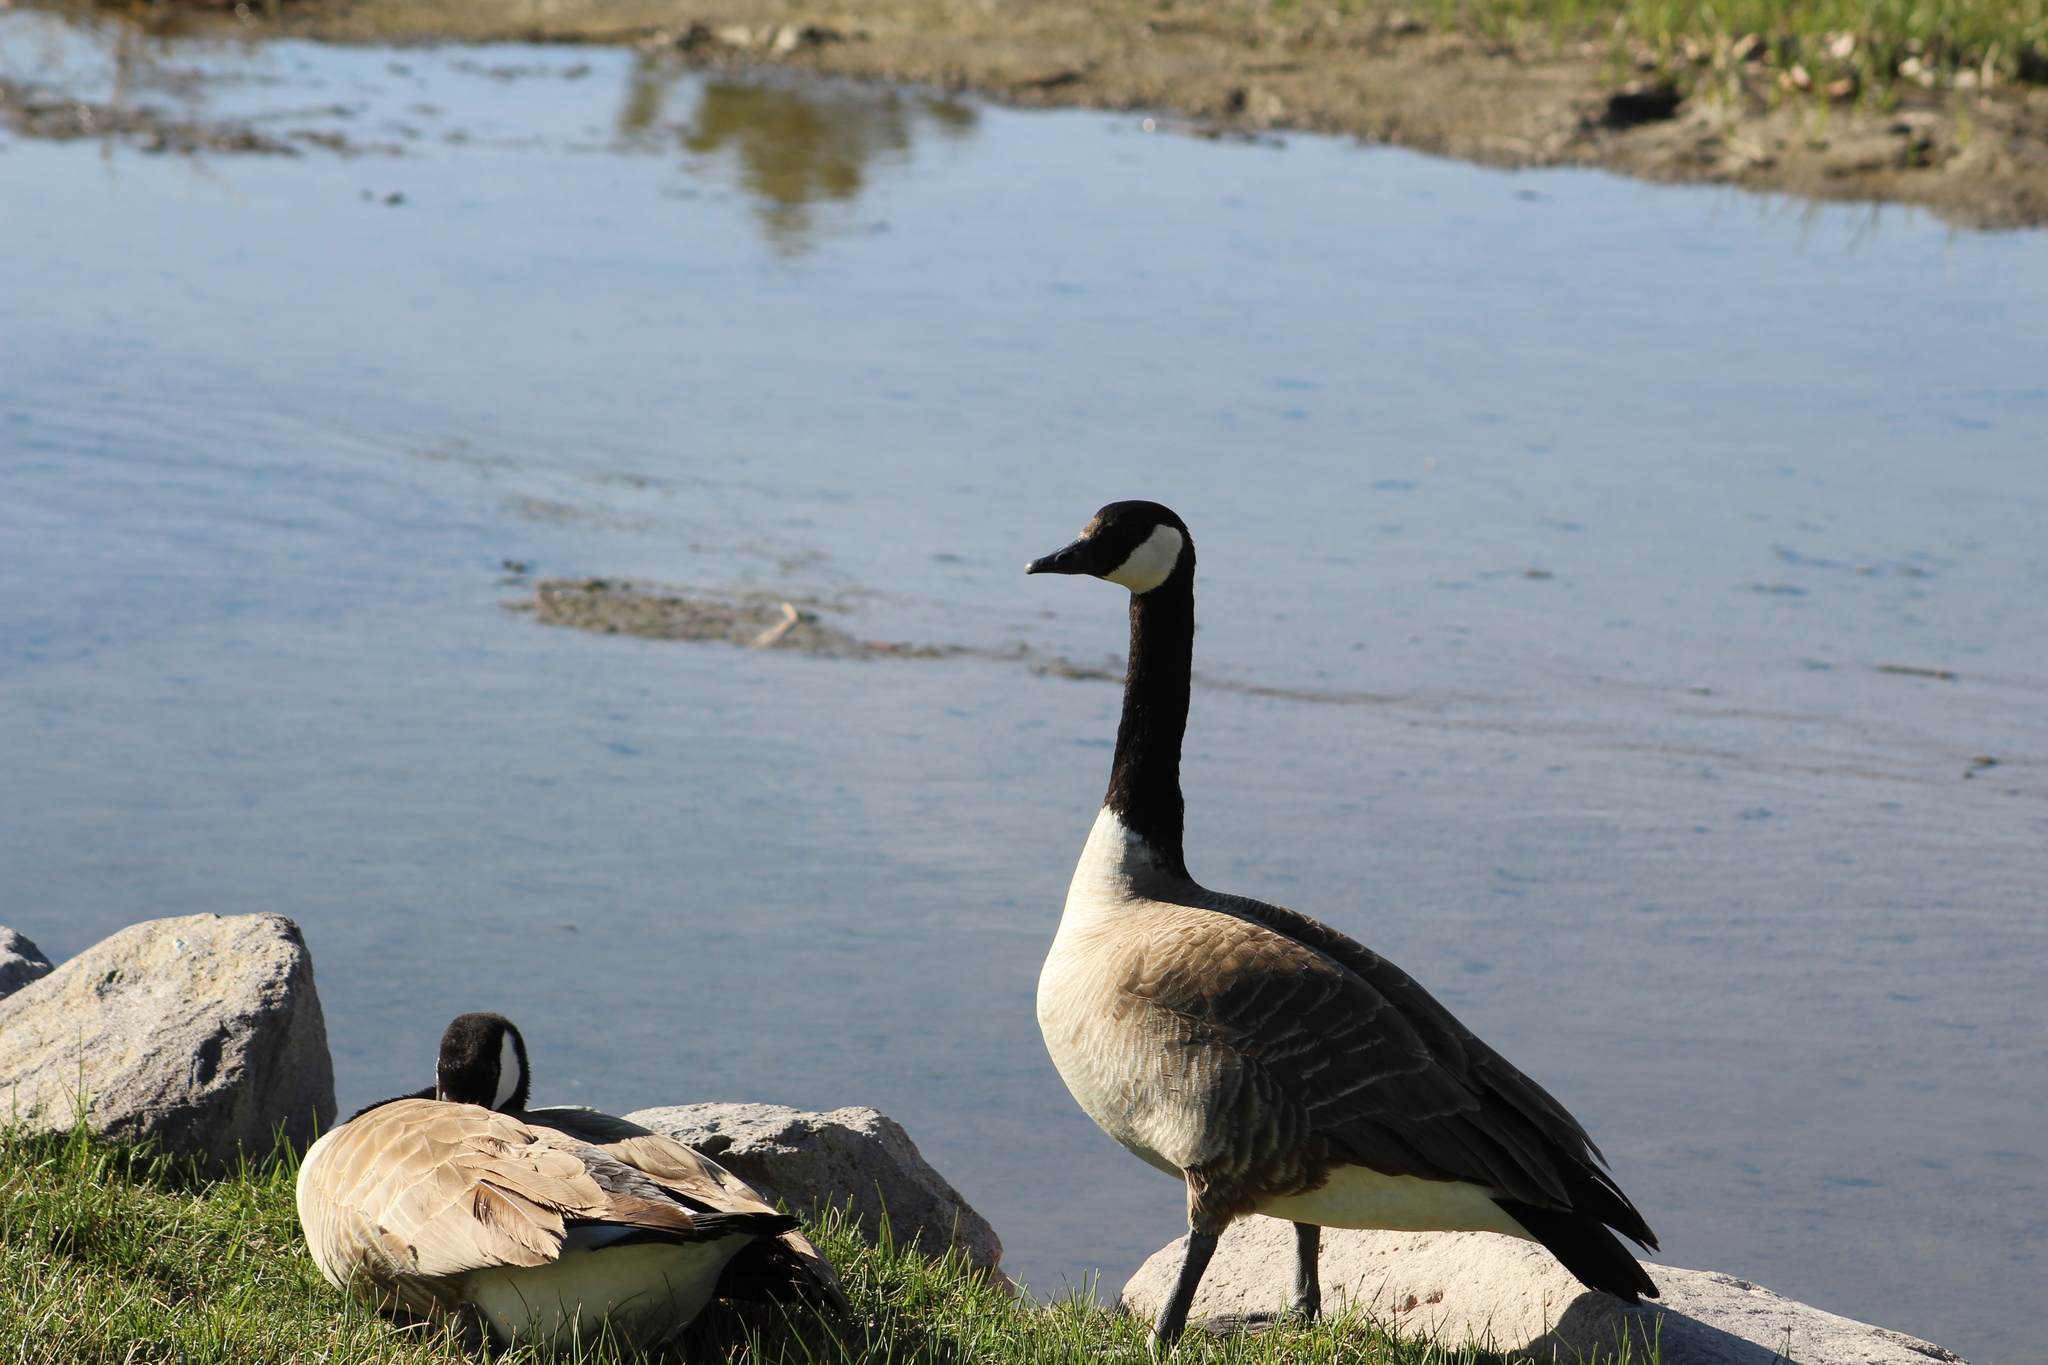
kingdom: Animalia
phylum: Chordata
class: Aves
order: Anseriformes
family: Anatidae
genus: Branta
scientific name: Branta canadensis
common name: Canada goose
